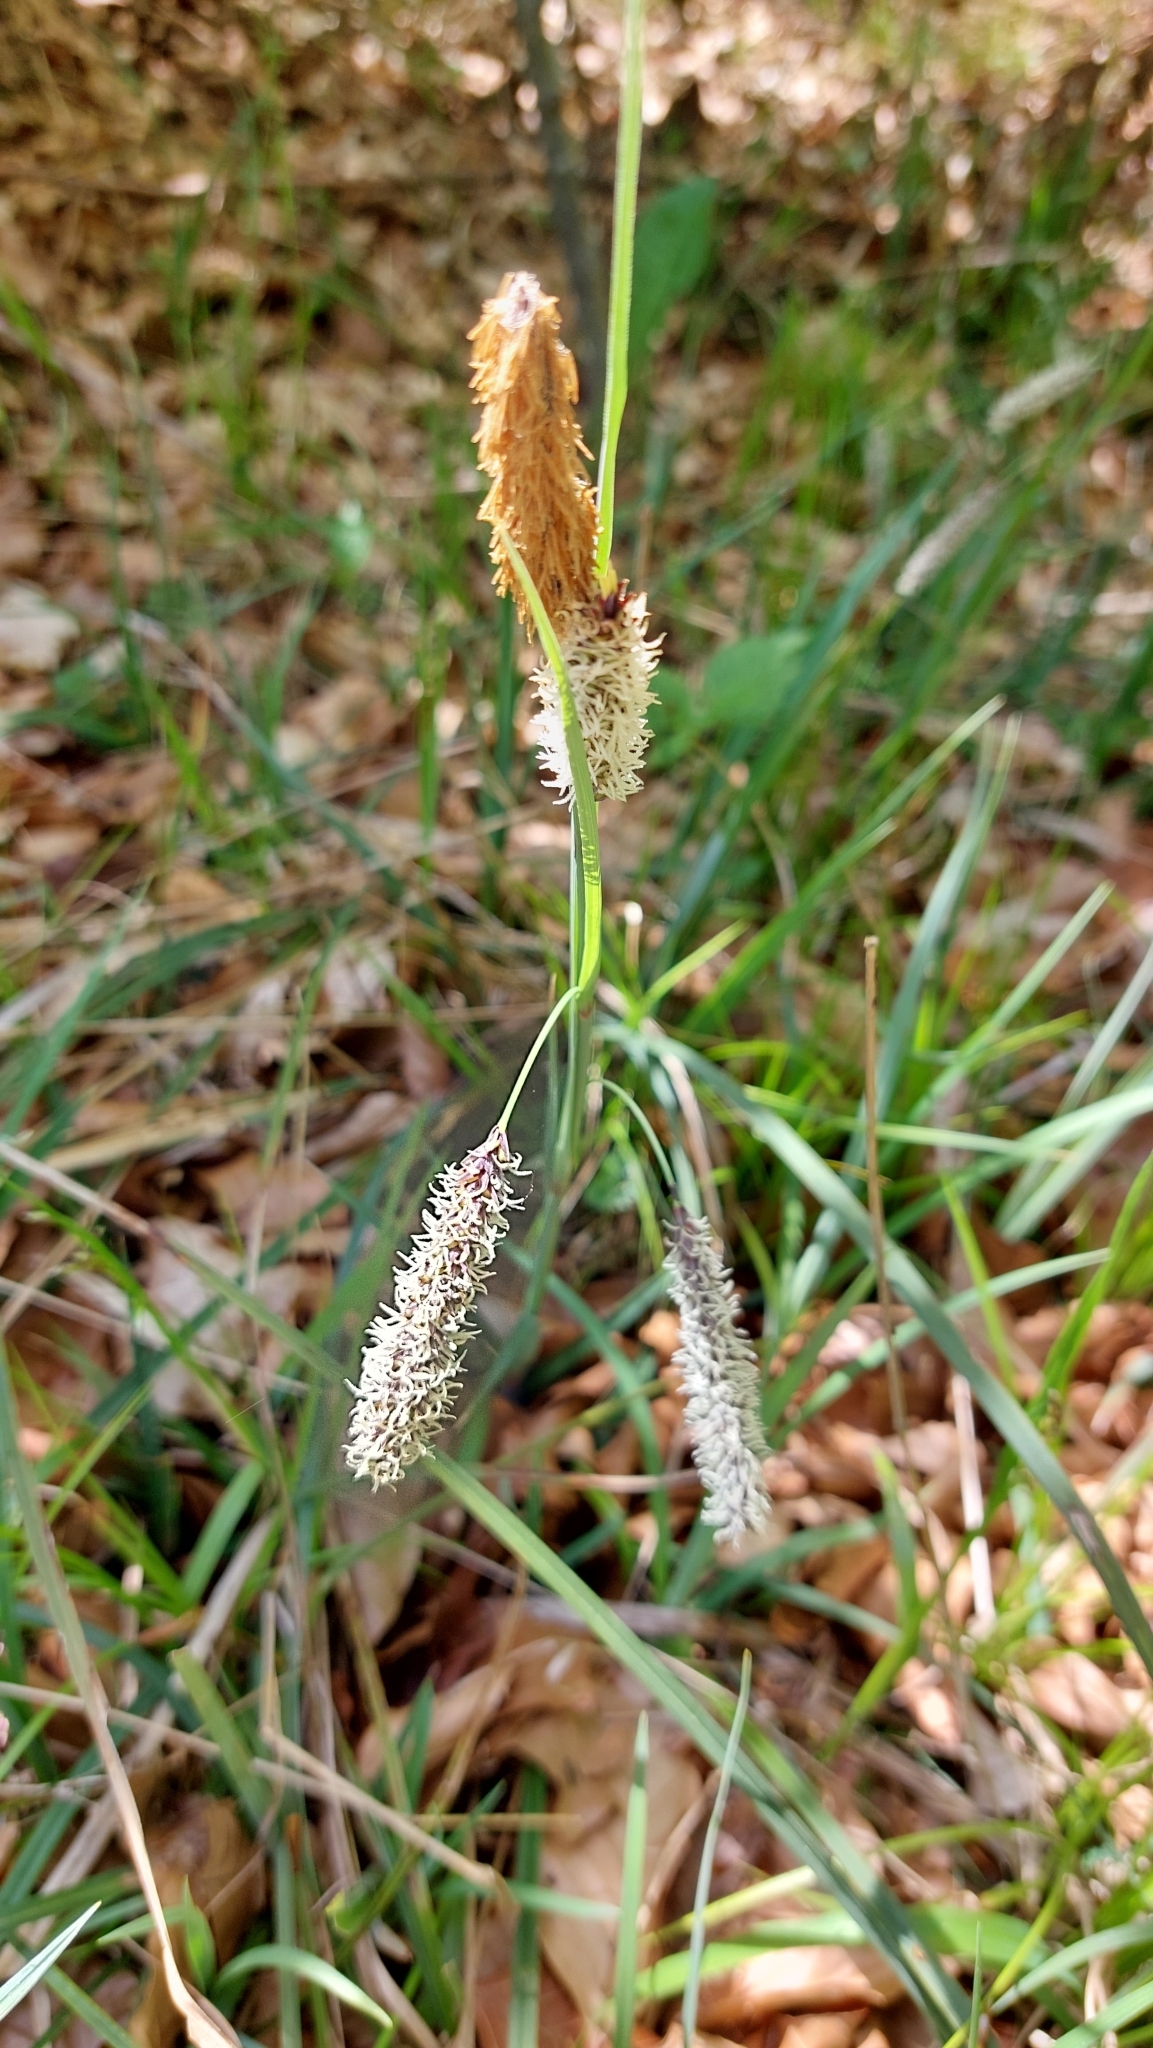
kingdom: Plantae
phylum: Tracheophyta
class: Liliopsida
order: Poales
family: Cyperaceae
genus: Carex
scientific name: Carex flacca
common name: Glaucous sedge
